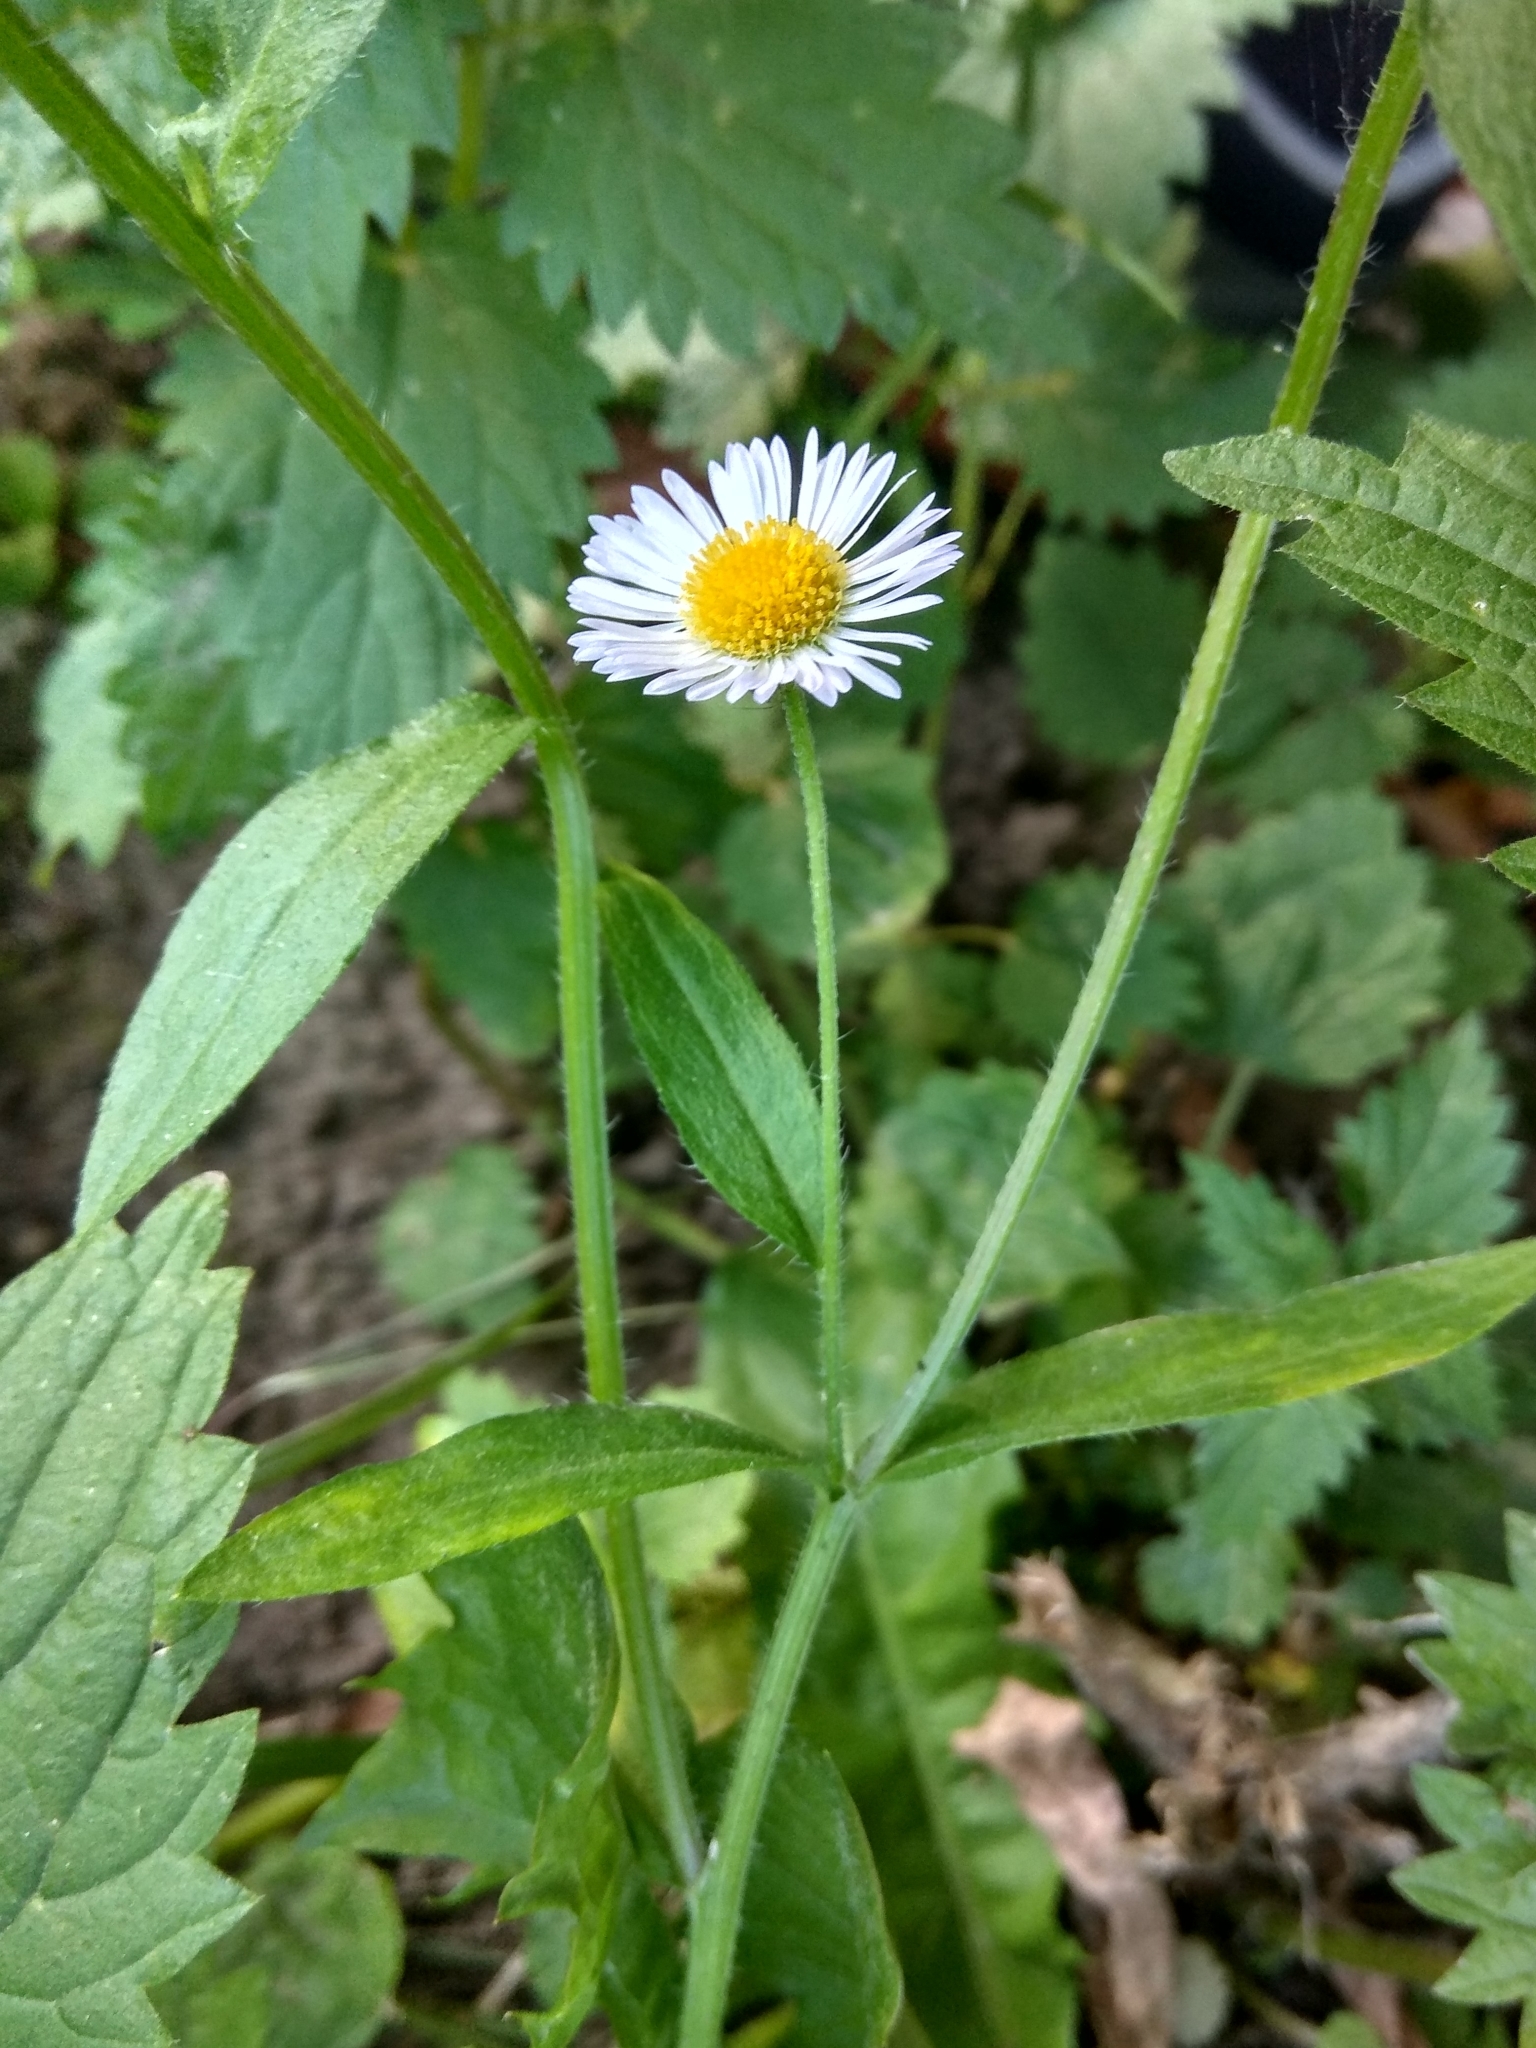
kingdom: Plantae
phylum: Tracheophyta
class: Magnoliopsida
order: Asterales
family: Asteraceae
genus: Erigeron
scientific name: Erigeron annuus
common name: Tall fleabane
